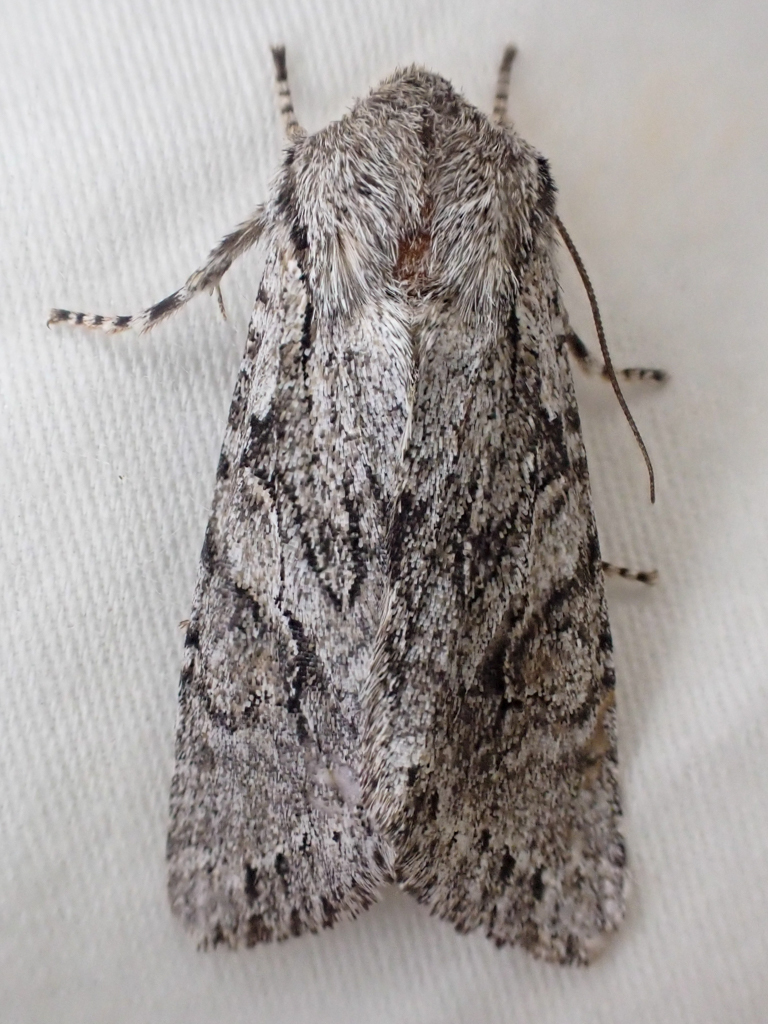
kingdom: Animalia
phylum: Arthropoda
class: Insecta
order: Lepidoptera
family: Noctuidae
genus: Egira
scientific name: Egira simplex
